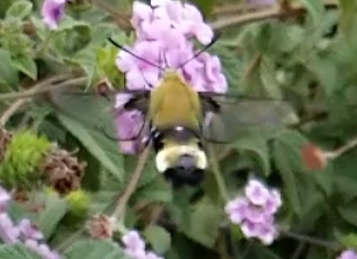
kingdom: Animalia
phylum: Arthropoda
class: Insecta
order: Lepidoptera
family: Sphingidae
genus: Hemaris
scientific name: Hemaris thetis
